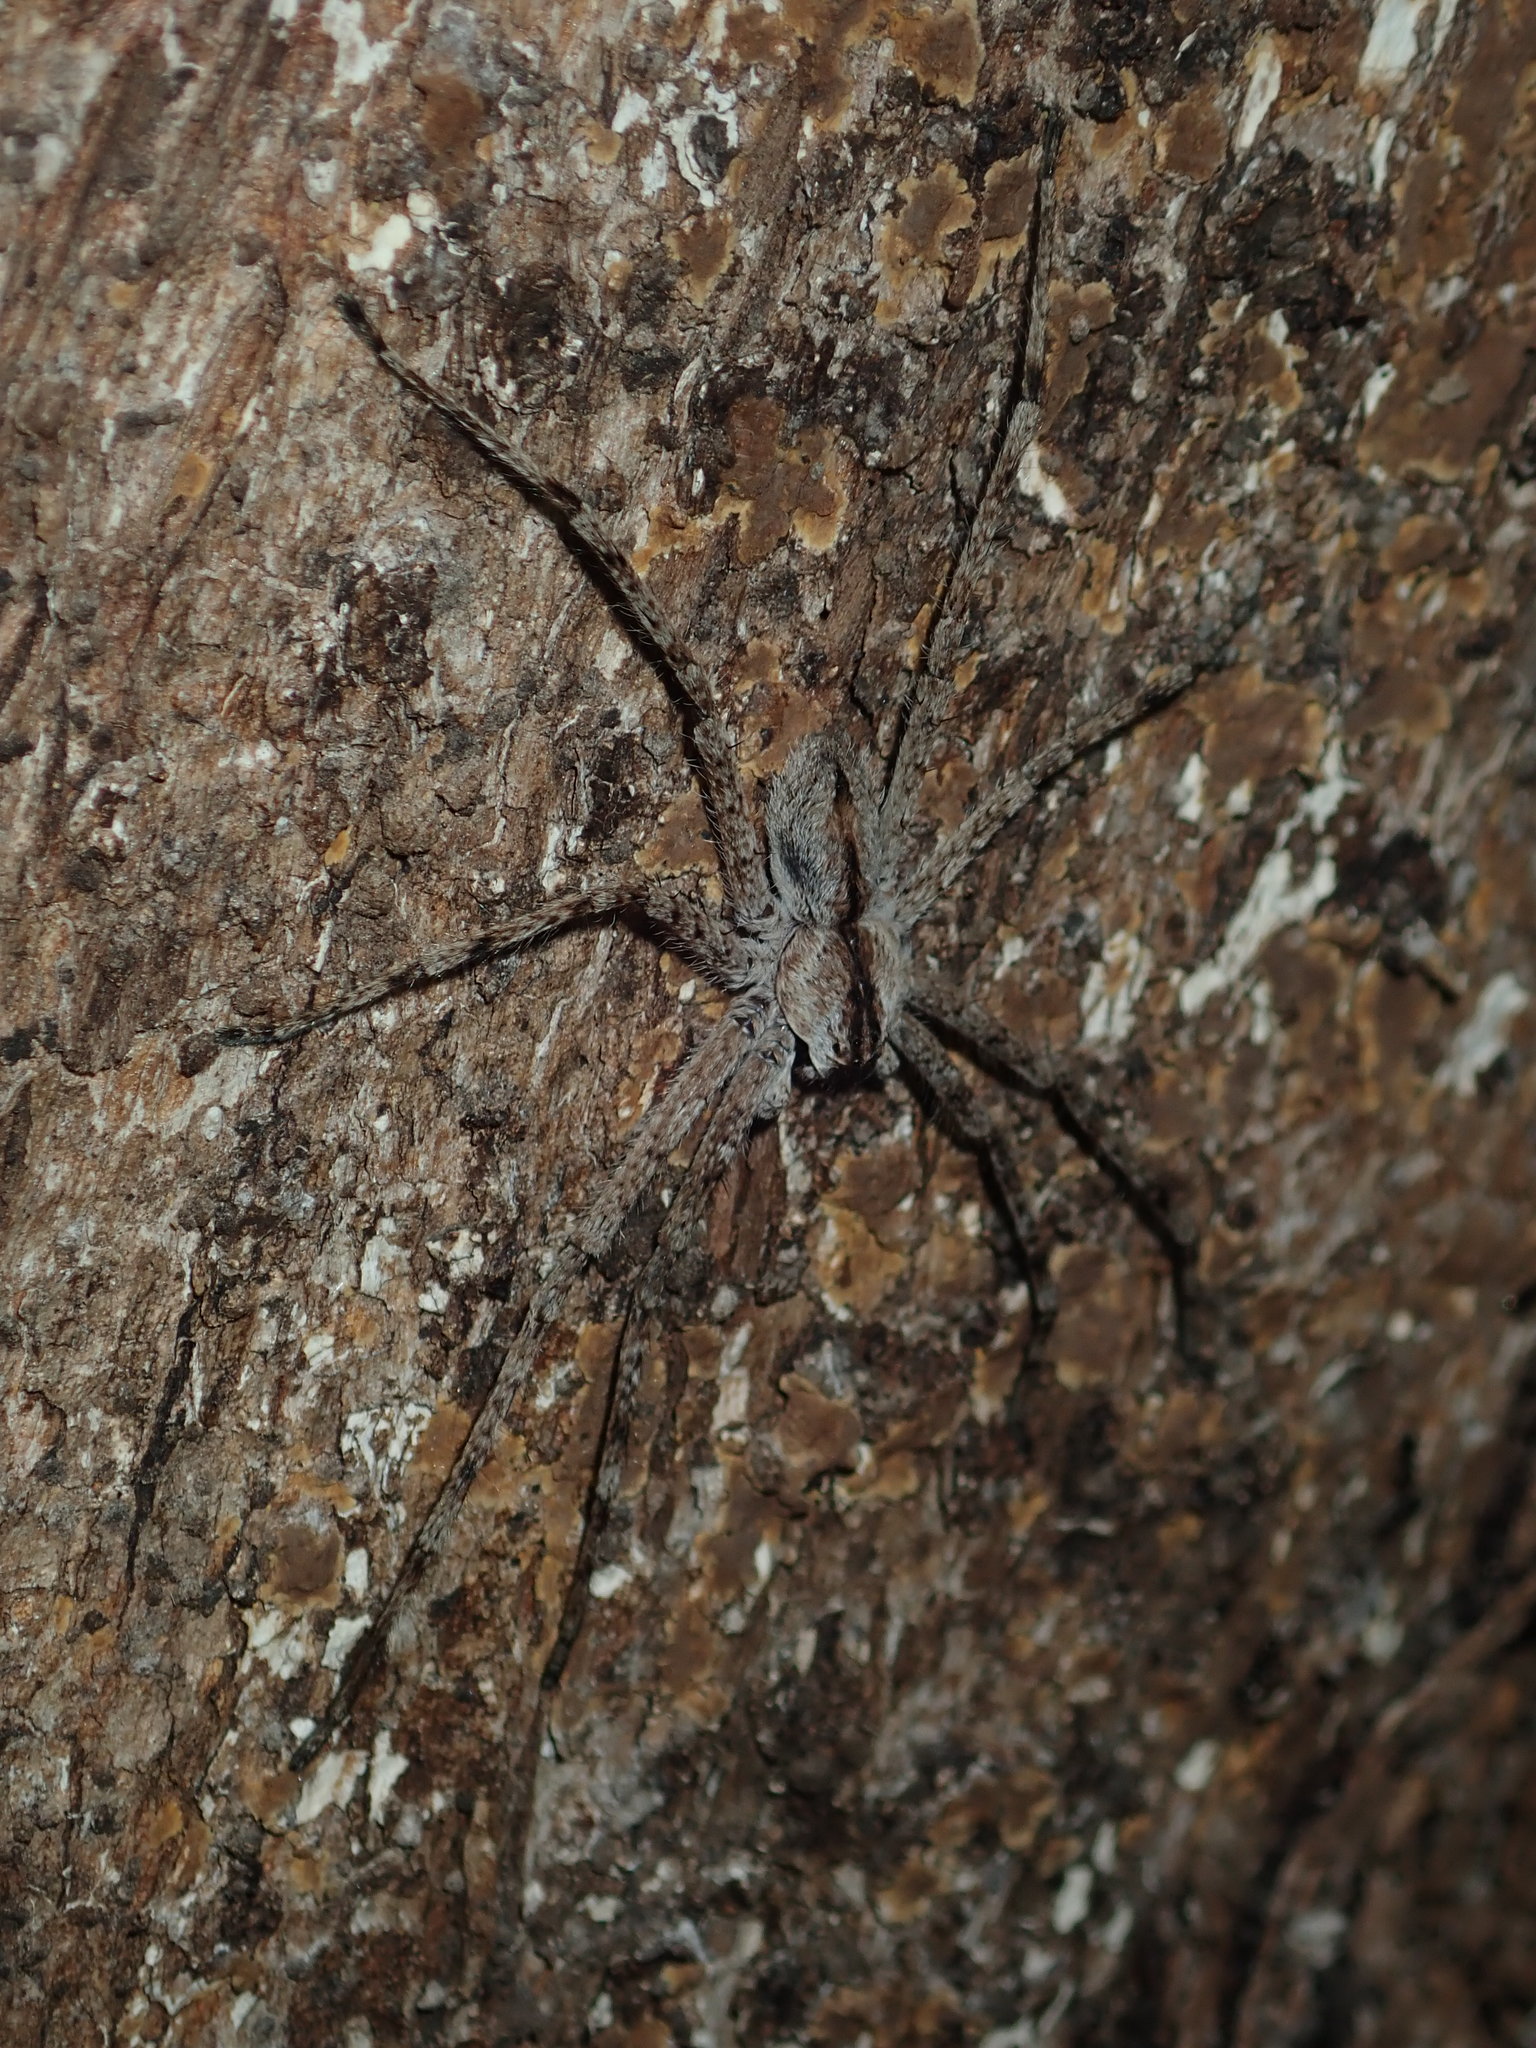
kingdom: Animalia
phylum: Arthropoda
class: Arachnida
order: Araneae
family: Sparassidae
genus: Pediana
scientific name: Pediana regina
